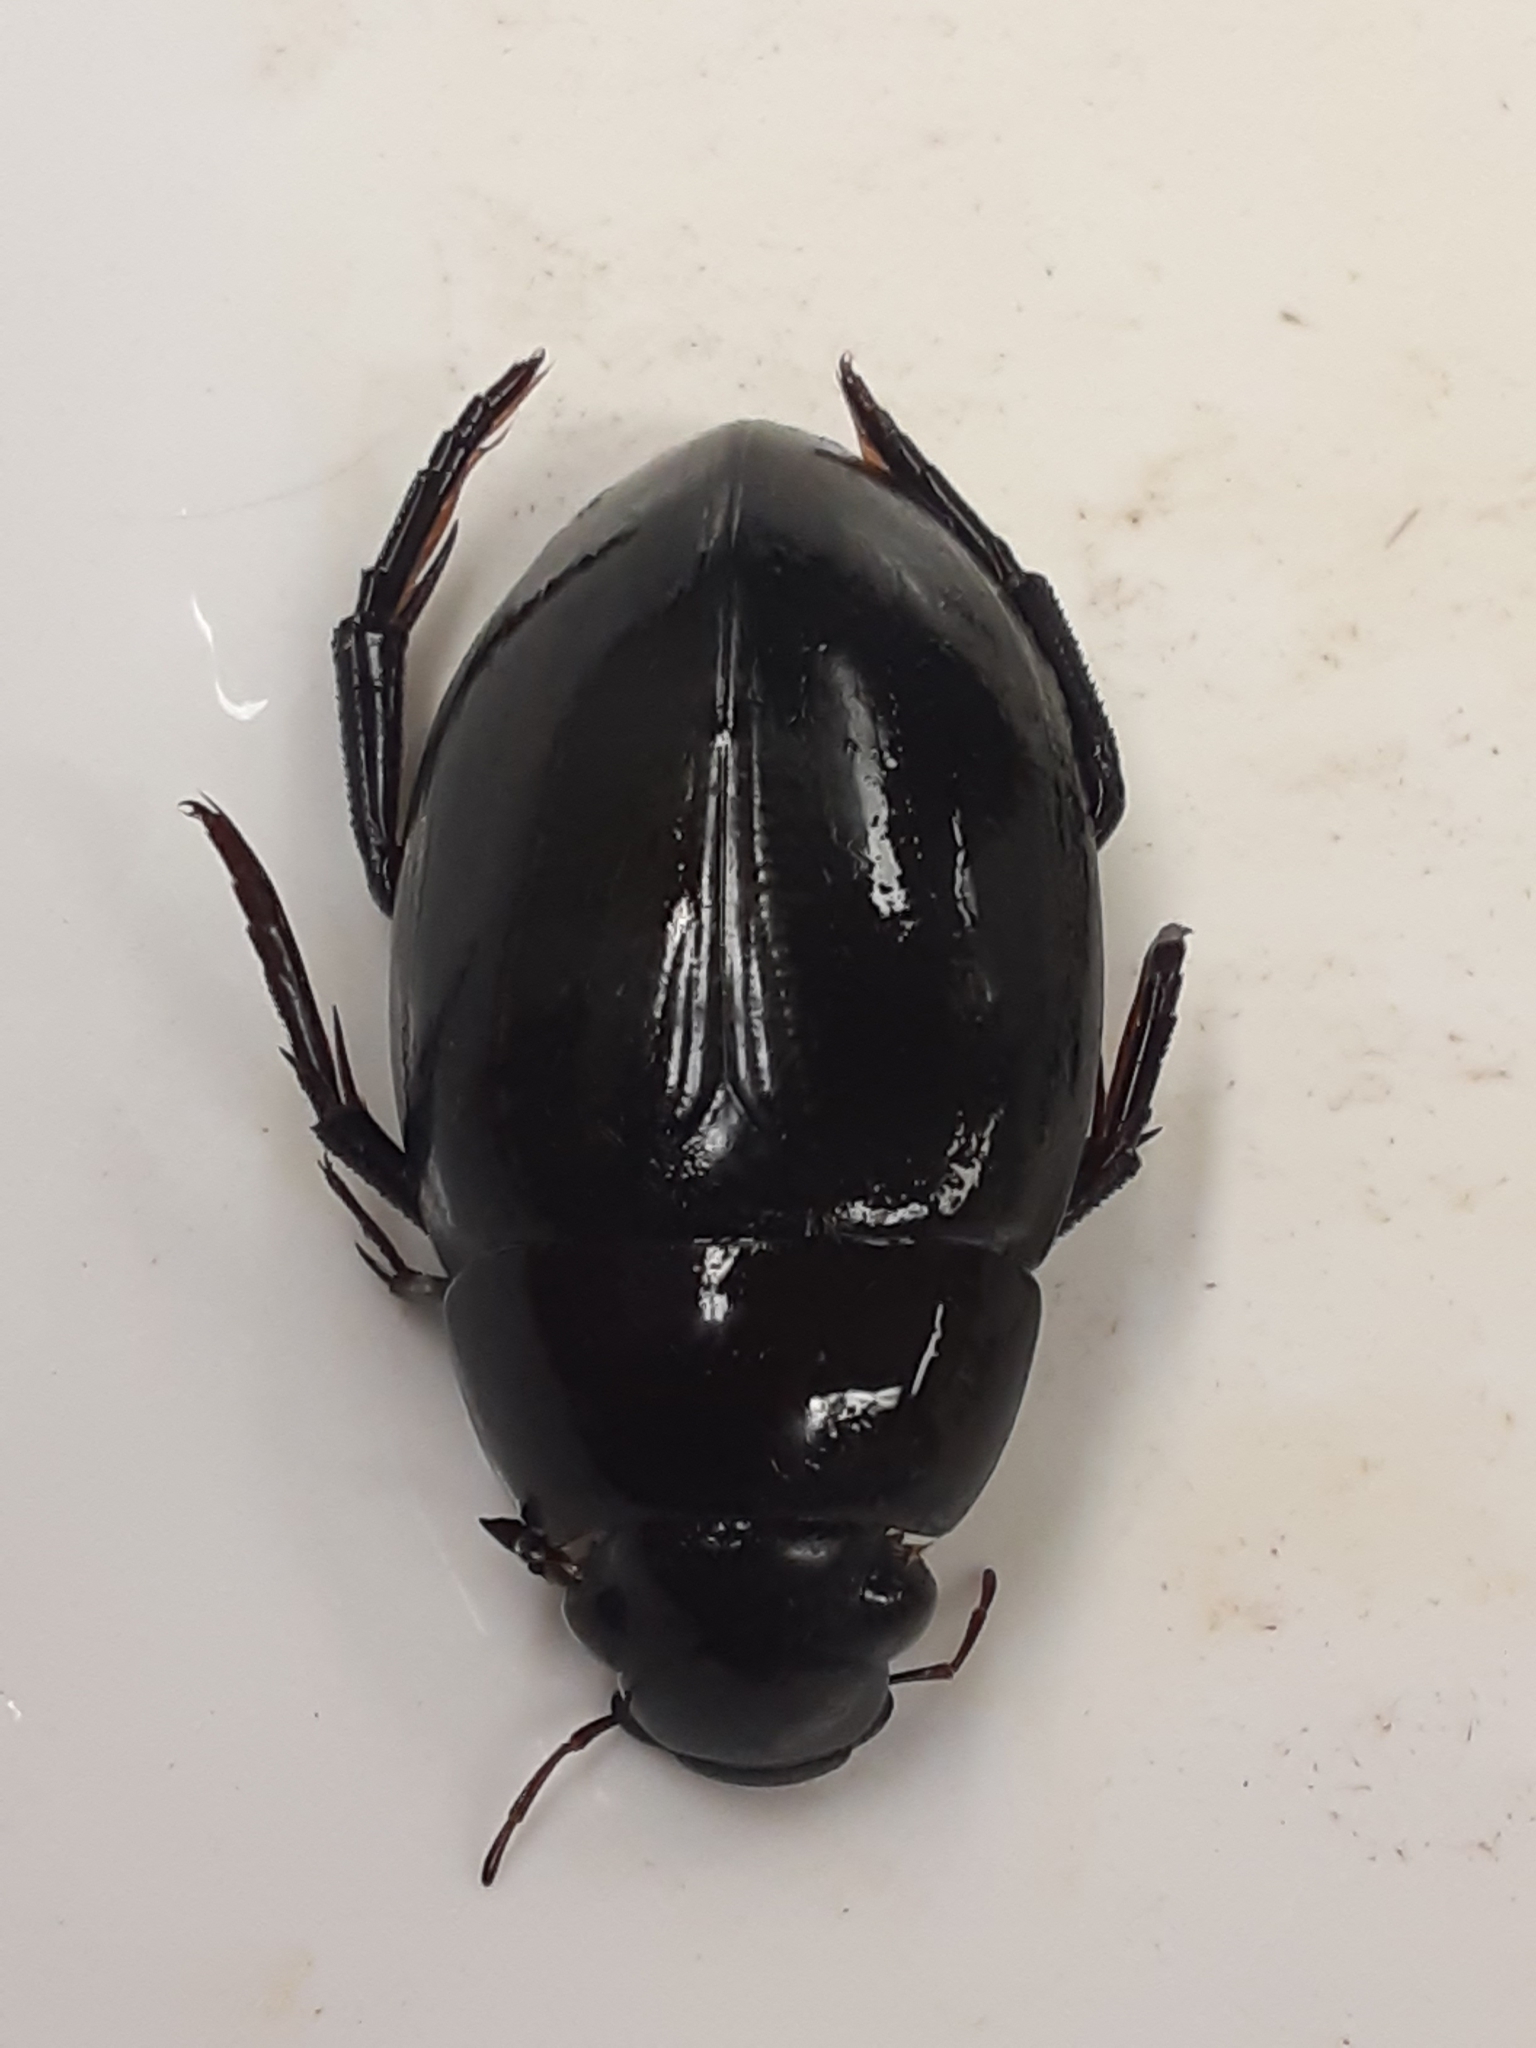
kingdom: Animalia
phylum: Arthropoda
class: Insecta
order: Coleoptera
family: Hydrophilidae
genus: Hydrophilus
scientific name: Hydrophilus ovatus
